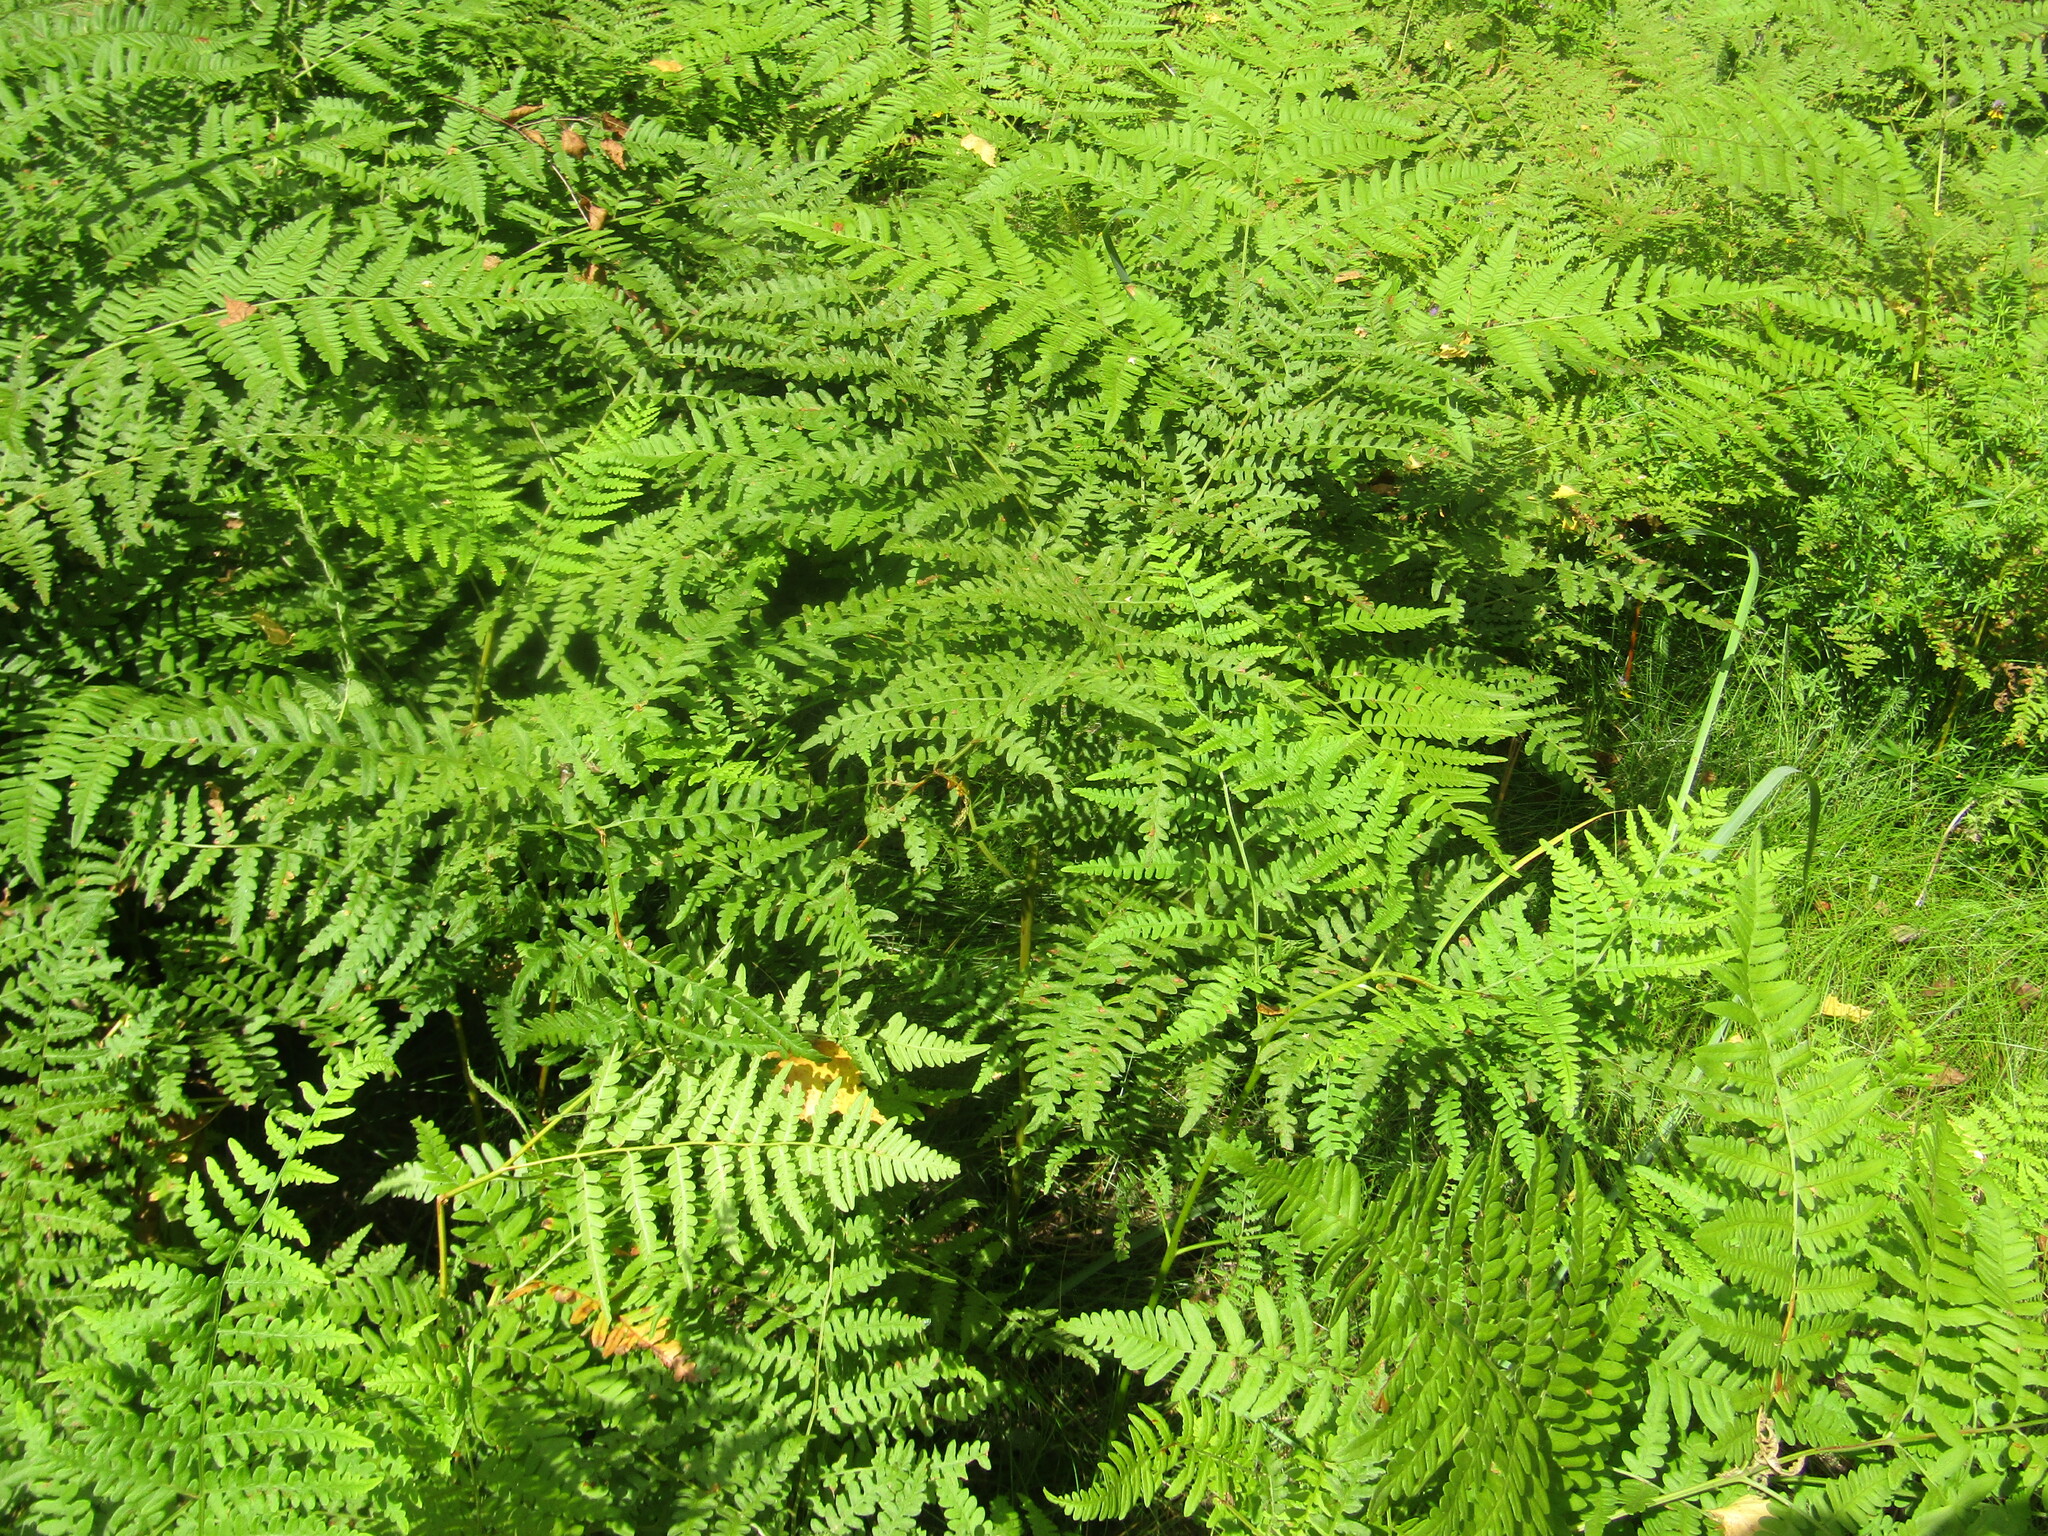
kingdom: Plantae
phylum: Tracheophyta
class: Polypodiopsida
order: Polypodiales
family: Dennstaedtiaceae
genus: Pteridium
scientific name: Pteridium aquilinum
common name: Bracken
